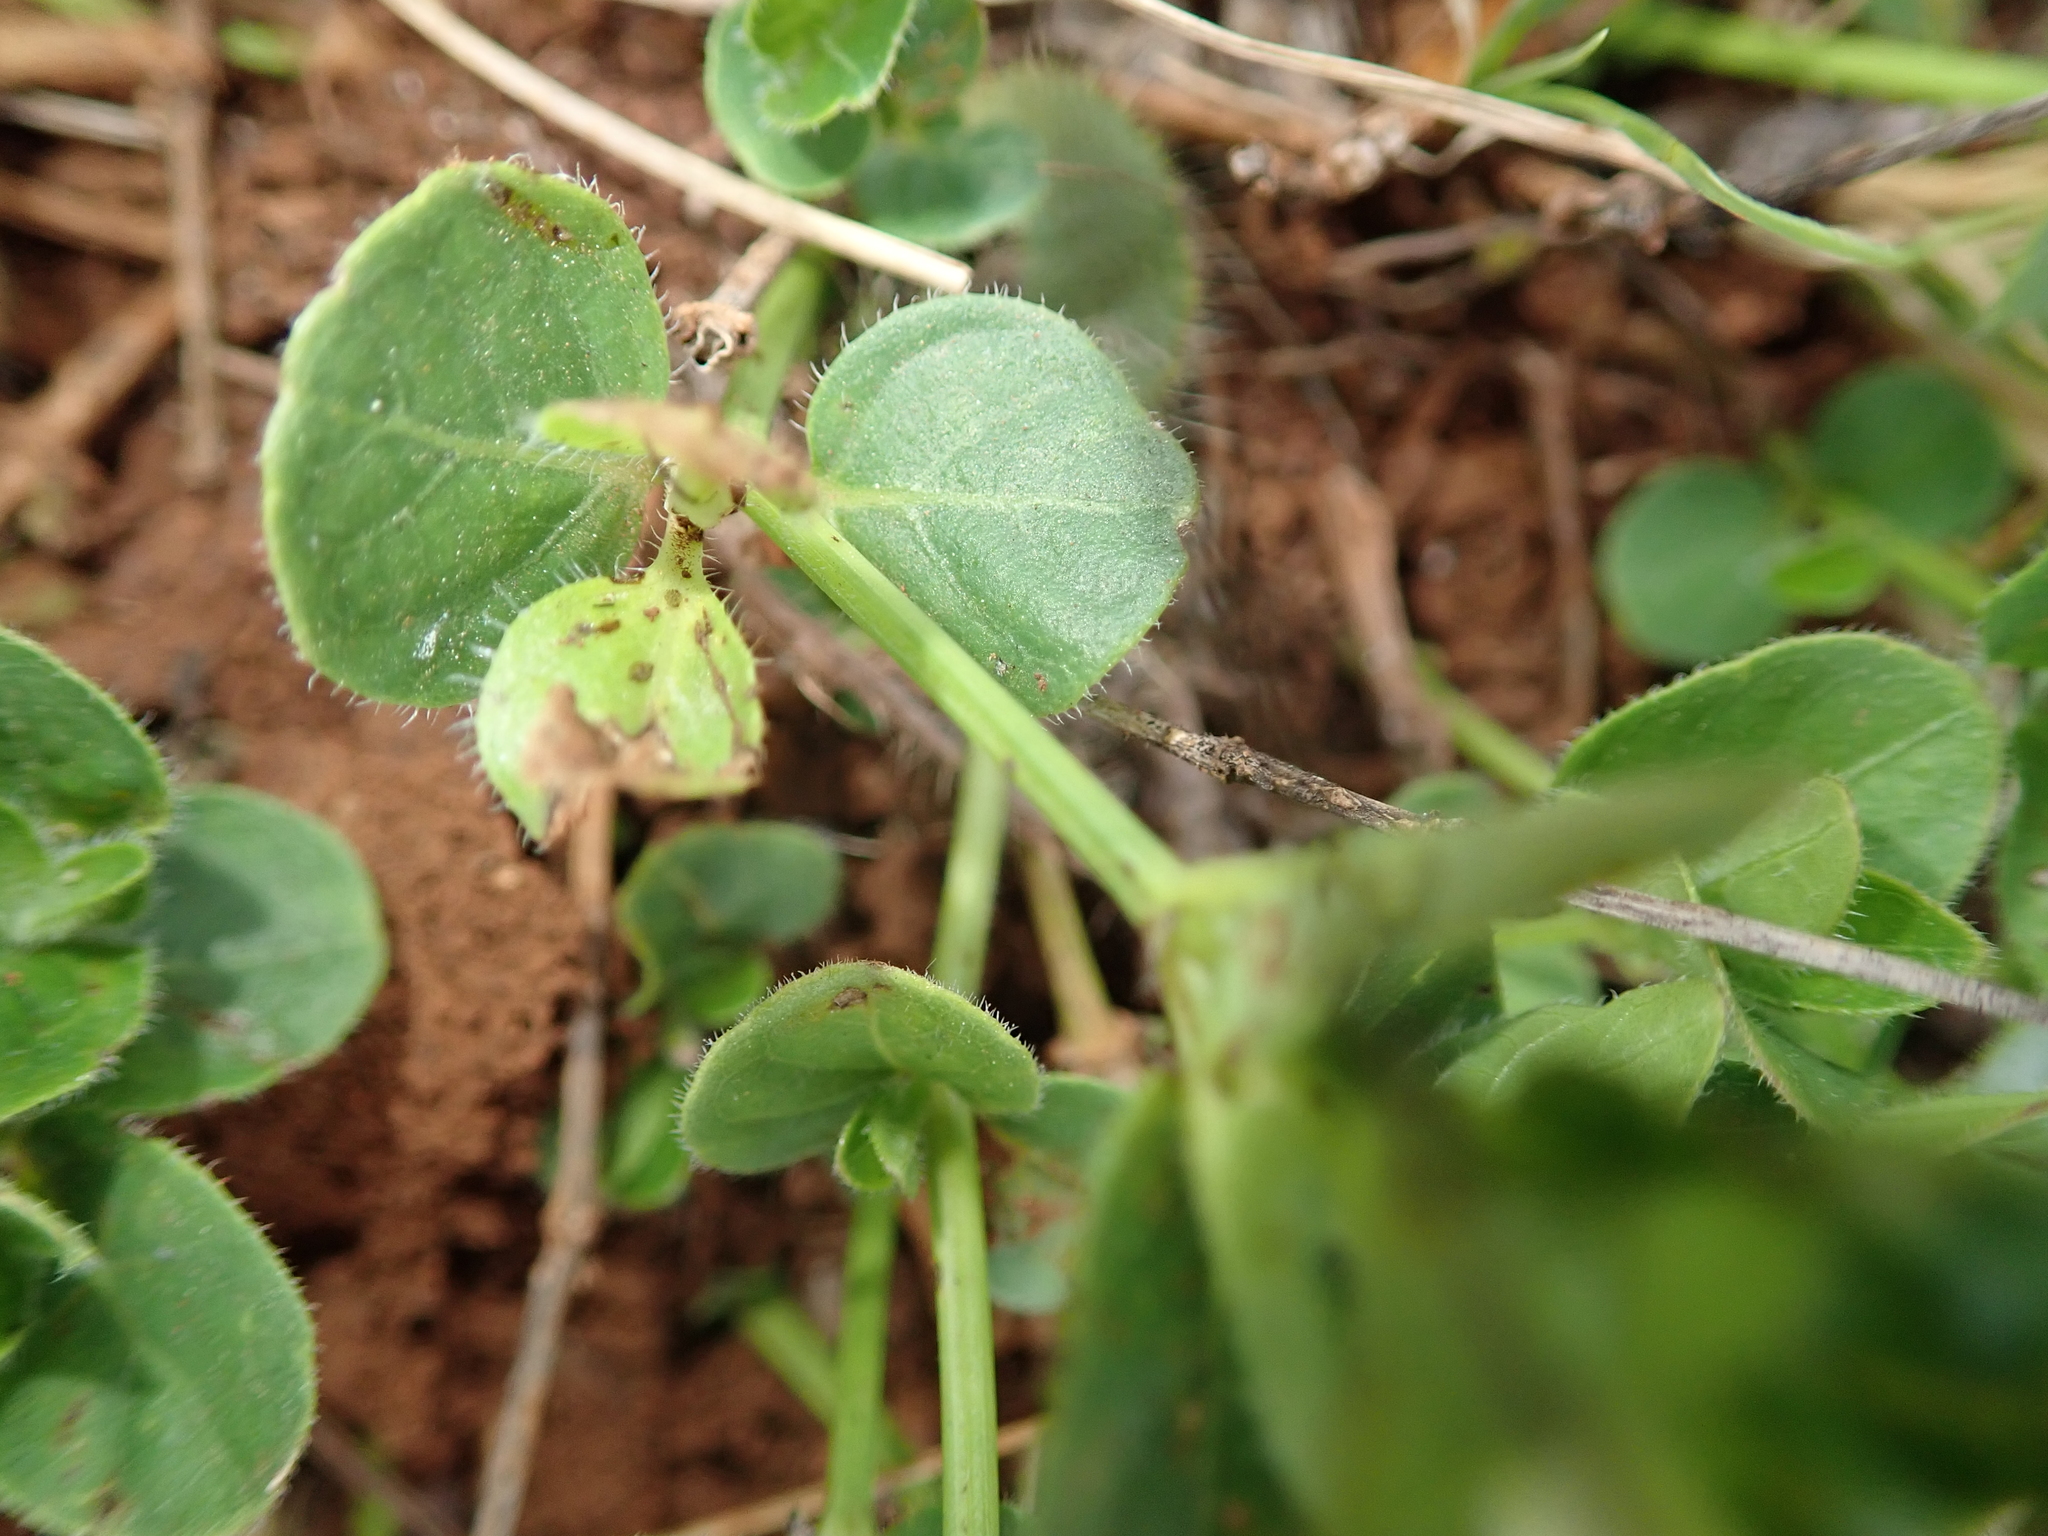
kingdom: Plantae
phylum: Tracheophyta
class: Magnoliopsida
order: Lamiales
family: Acanthaceae
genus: Ruellia
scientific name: Ruellia cordata
